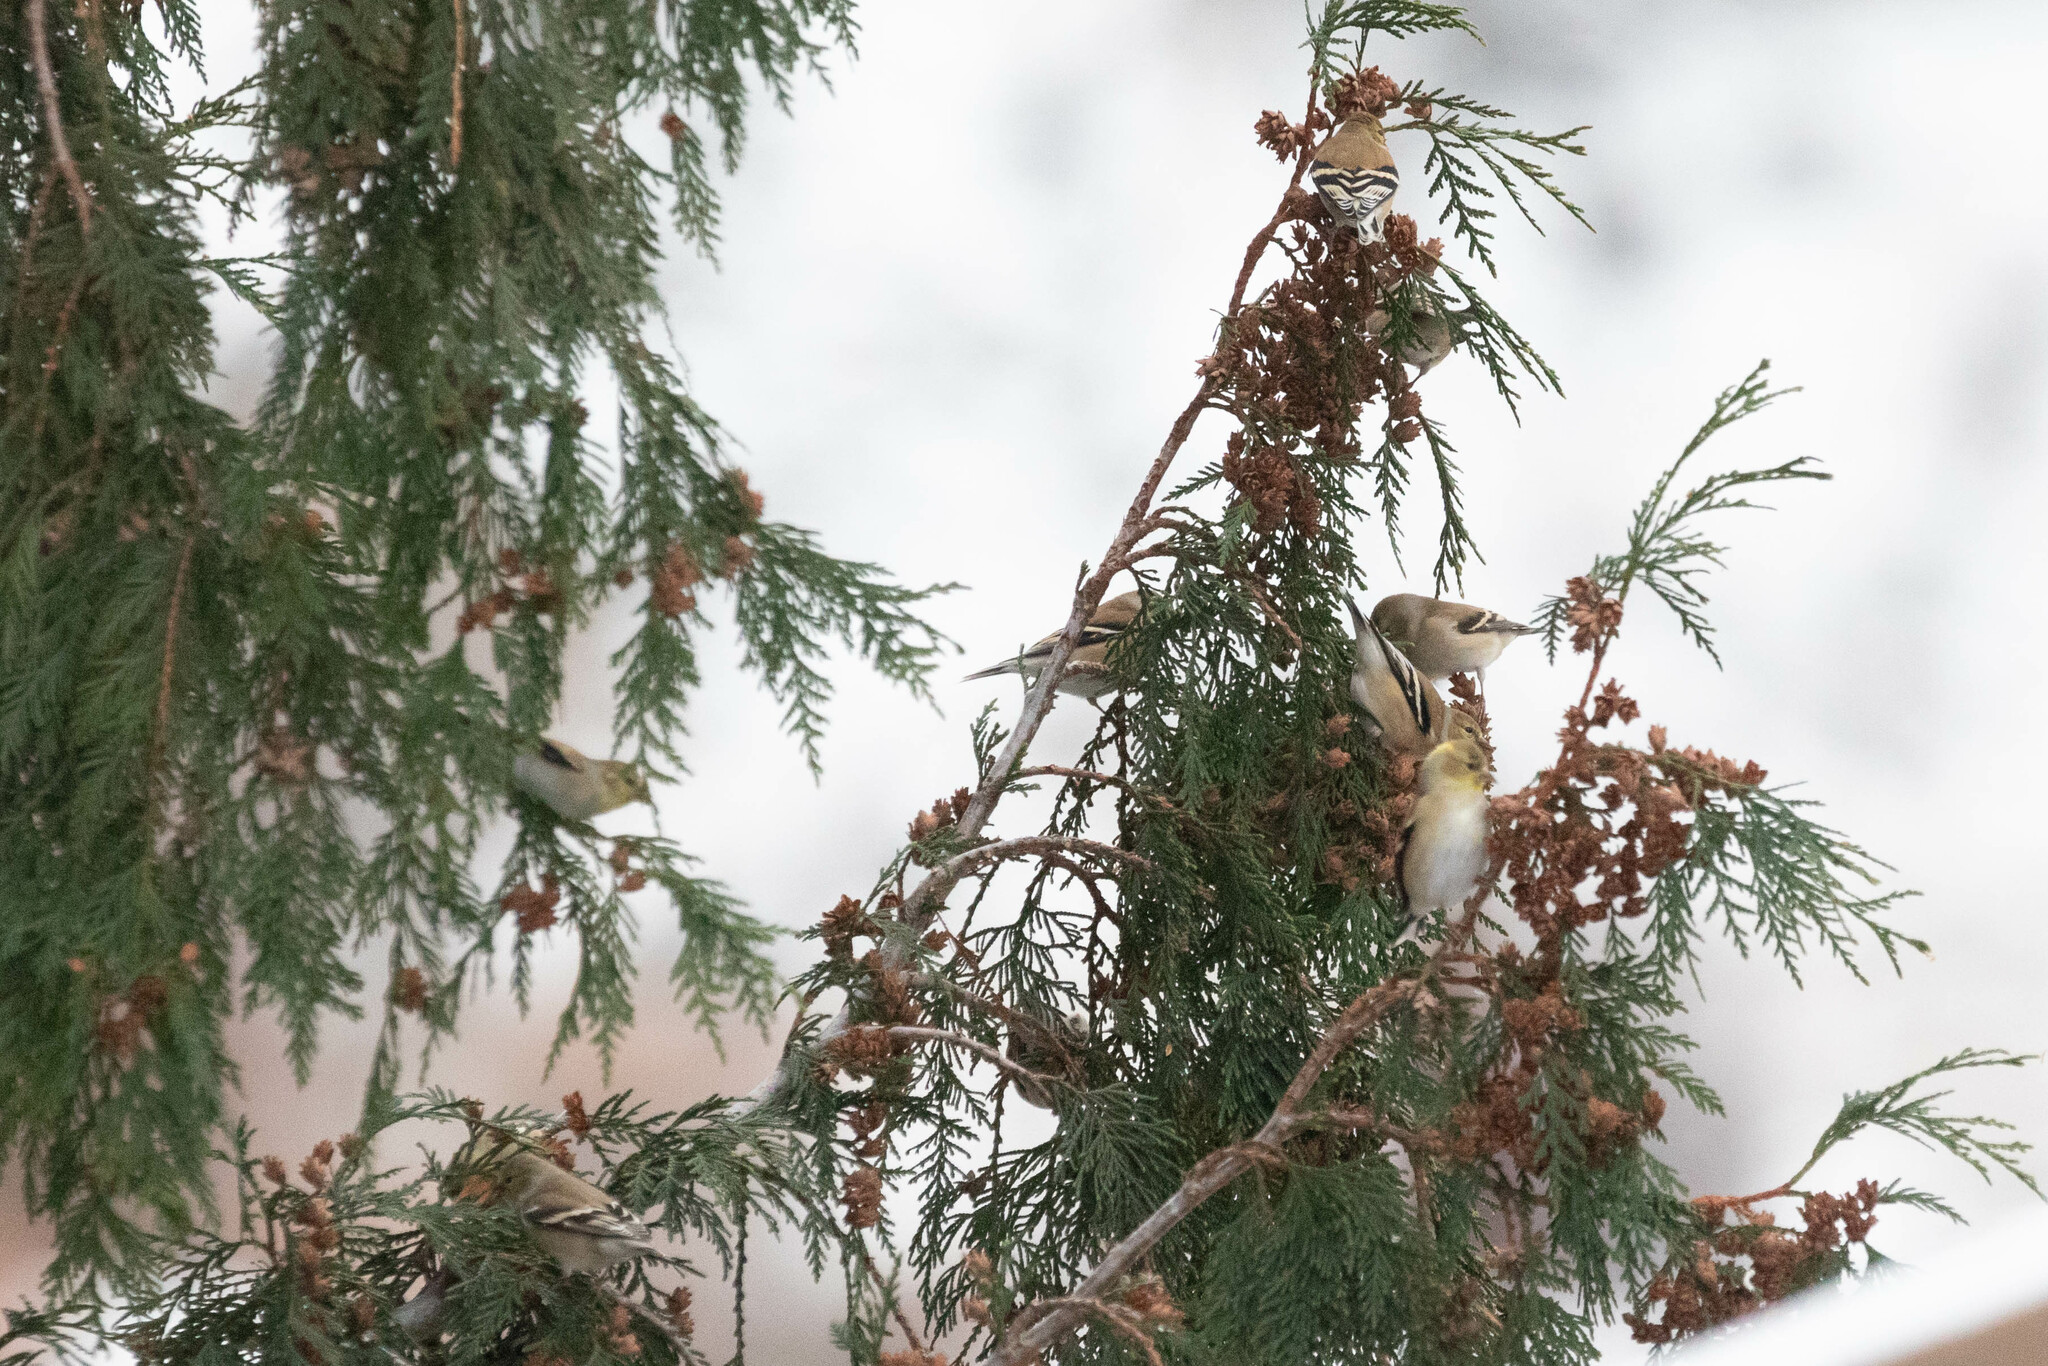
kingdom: Animalia
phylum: Chordata
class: Aves
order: Passeriformes
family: Fringillidae
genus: Spinus
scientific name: Spinus tristis
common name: American goldfinch
